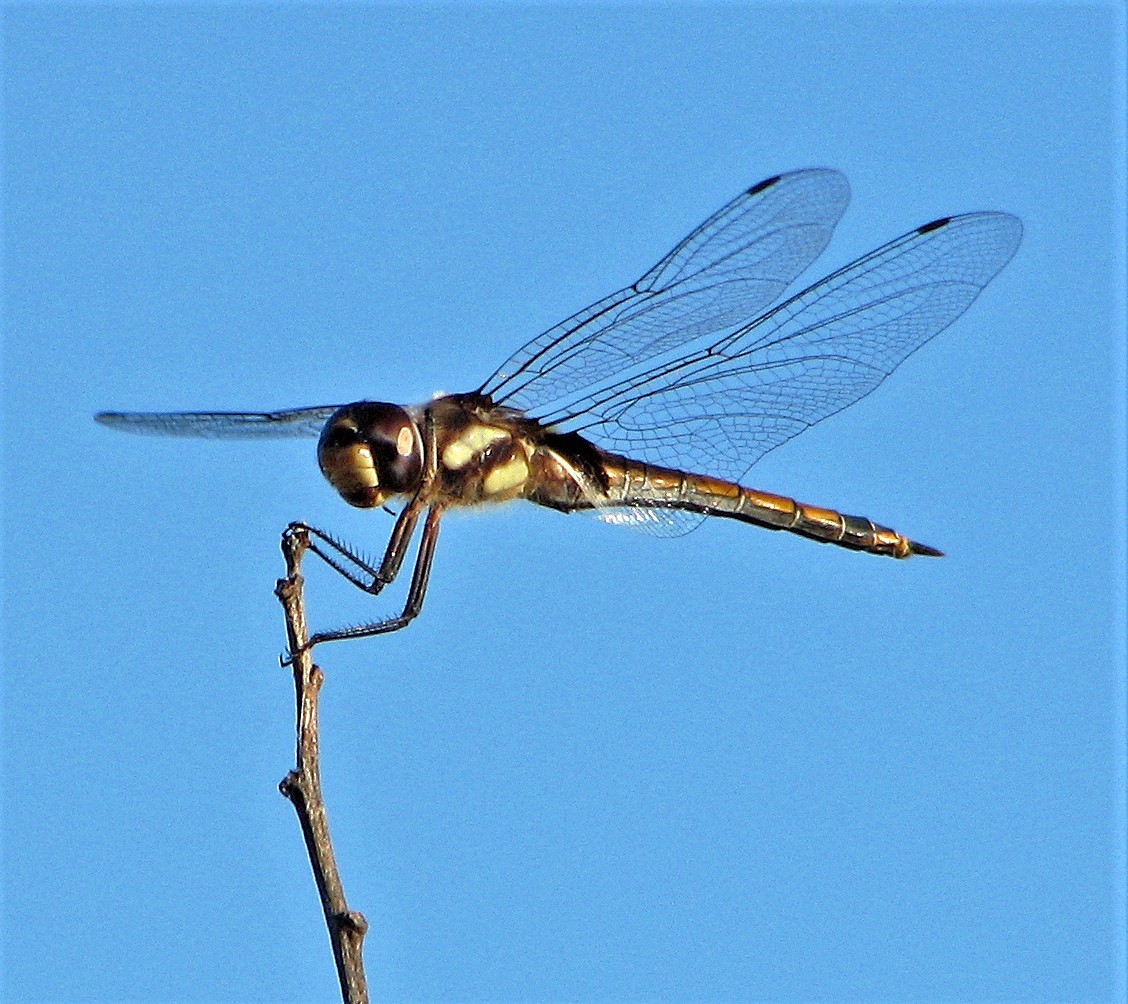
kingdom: Animalia
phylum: Arthropoda
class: Insecta
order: Odonata
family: Libellulidae
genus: Tramea
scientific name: Tramea cophysa
